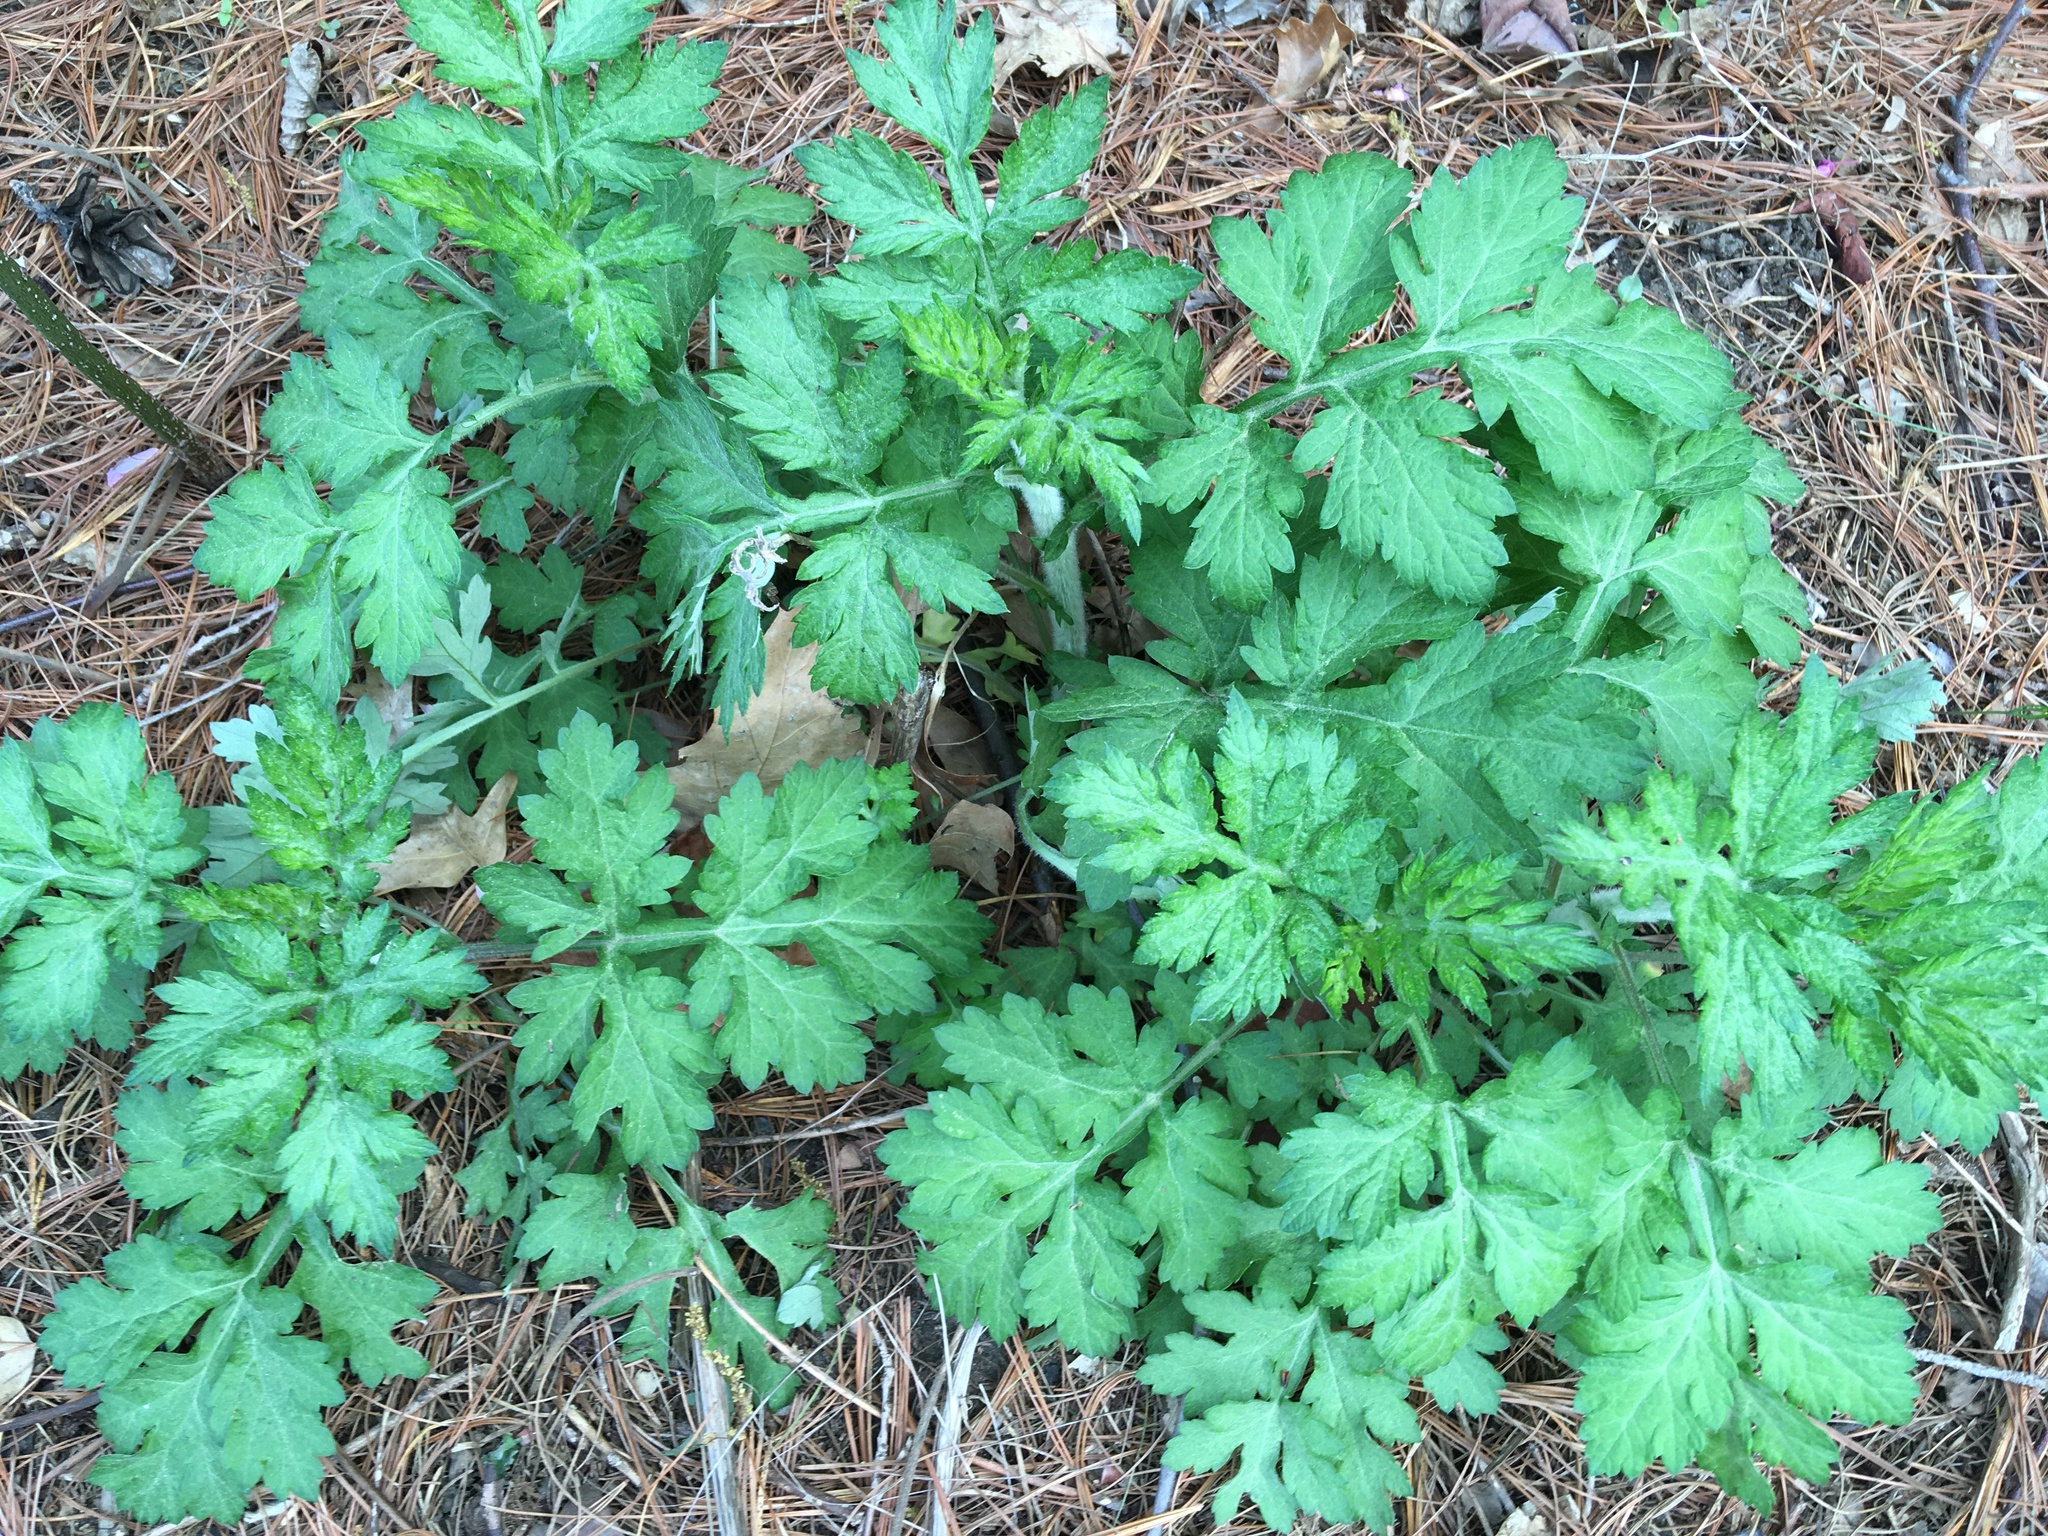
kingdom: Plantae
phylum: Tracheophyta
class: Magnoliopsida
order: Asterales
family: Asteraceae
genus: Artemisia
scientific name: Artemisia vulgaris
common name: Mugwort
